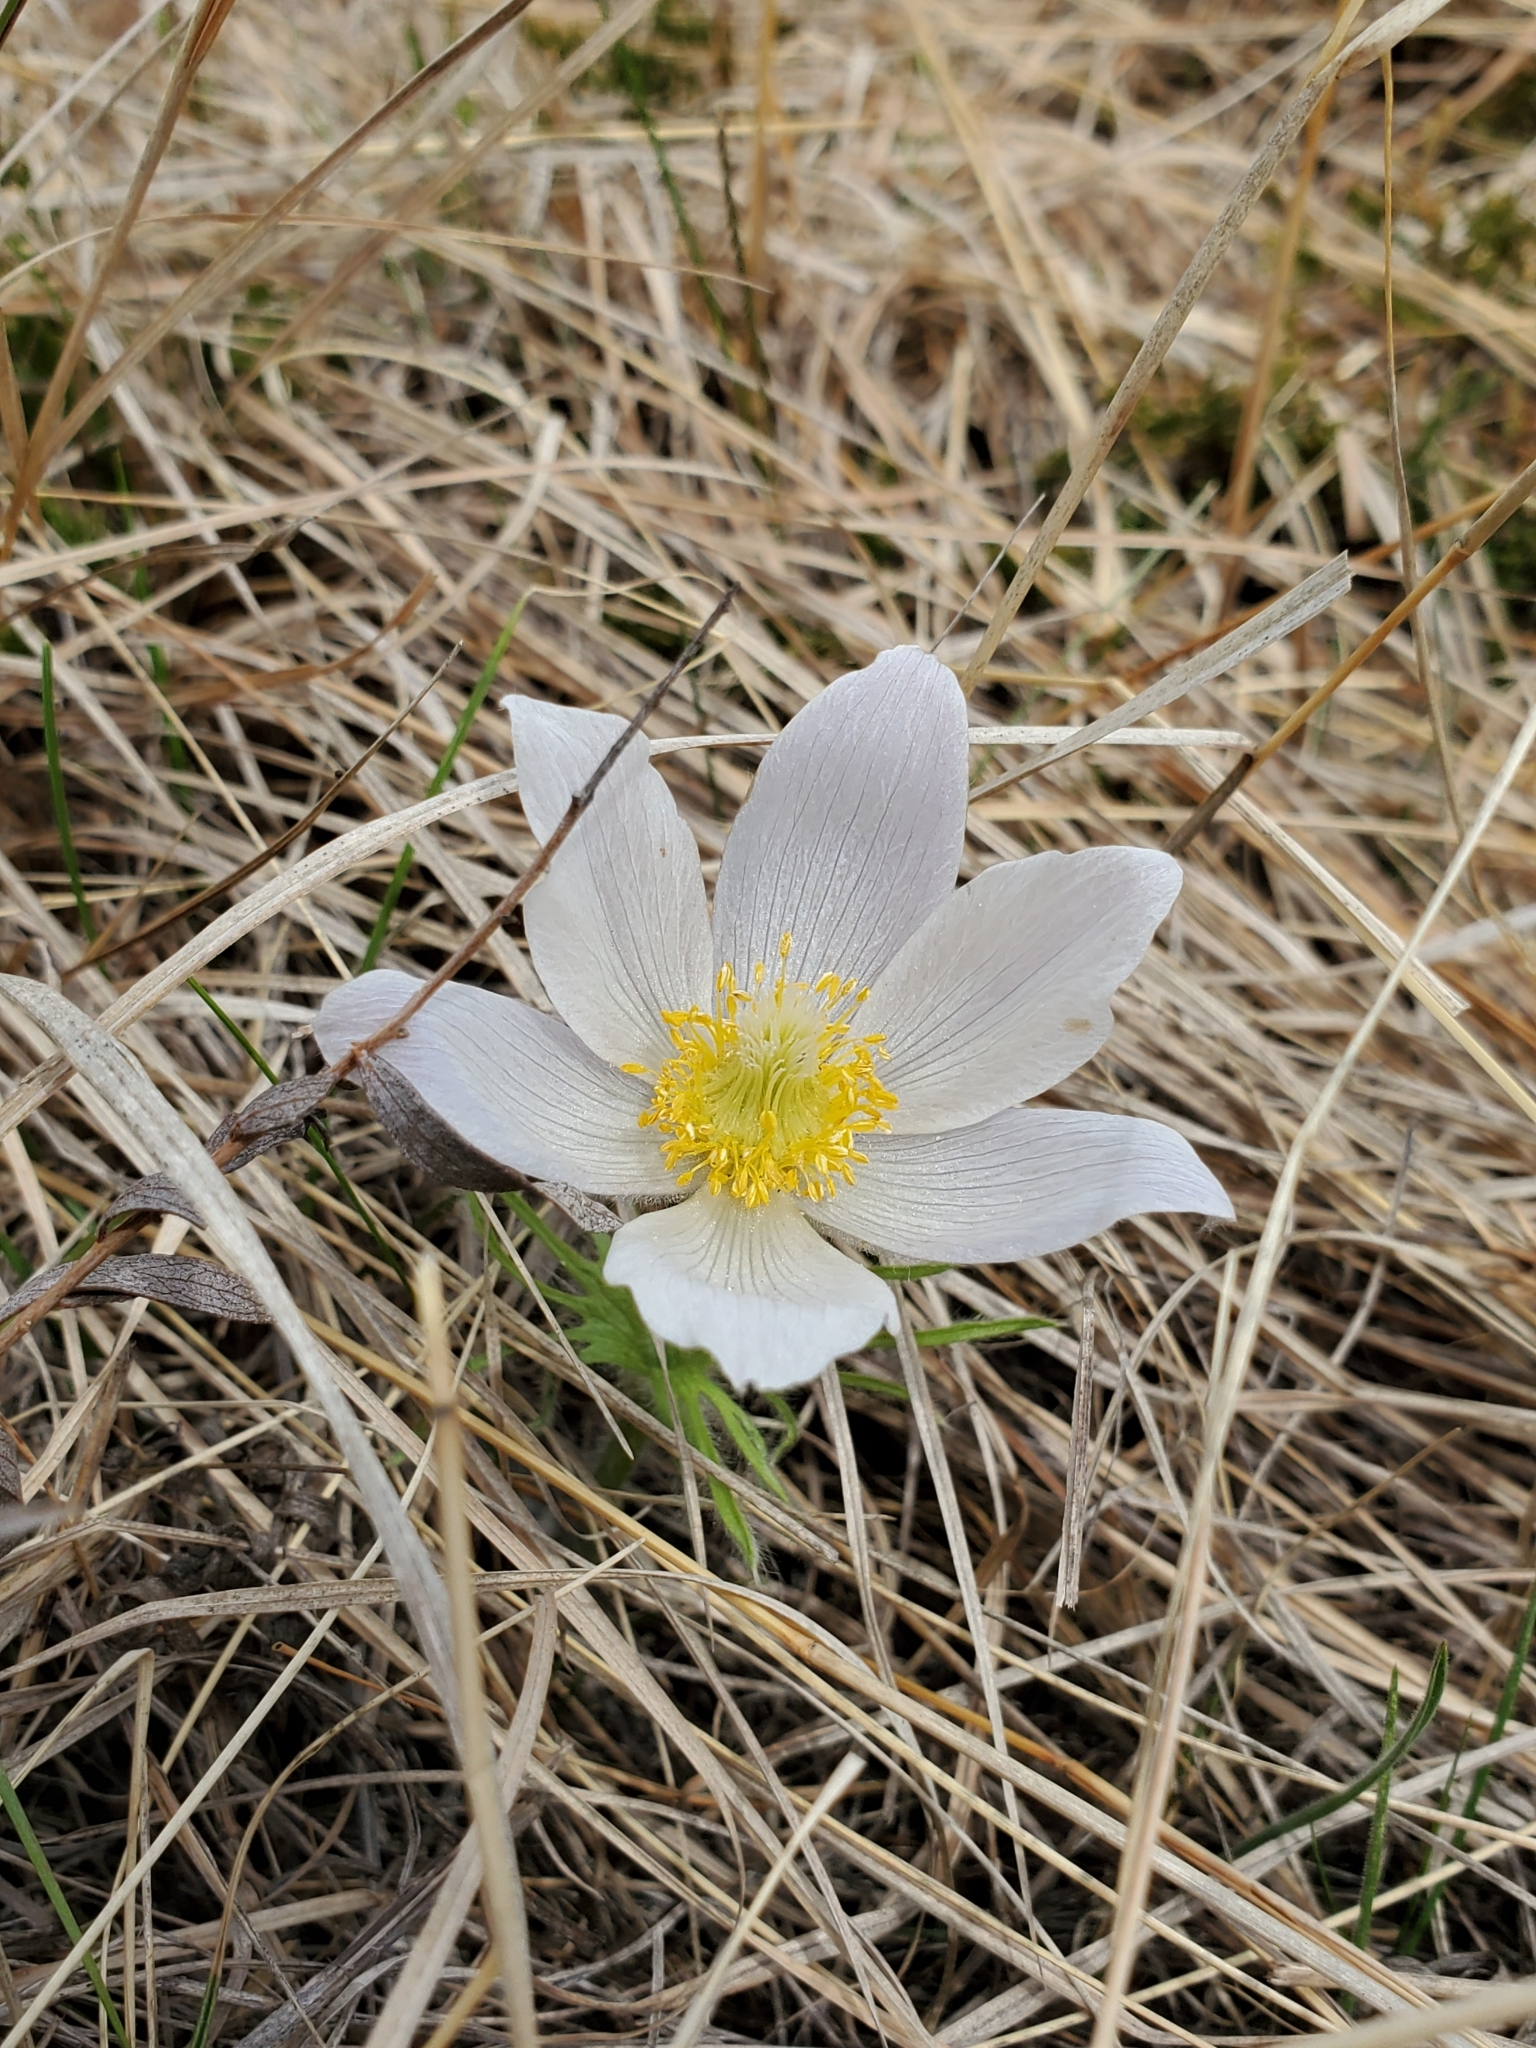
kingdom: Plantae
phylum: Tracheophyta
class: Magnoliopsida
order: Ranunculales
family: Ranunculaceae
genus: Pulsatilla
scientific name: Pulsatilla nuttalliana
